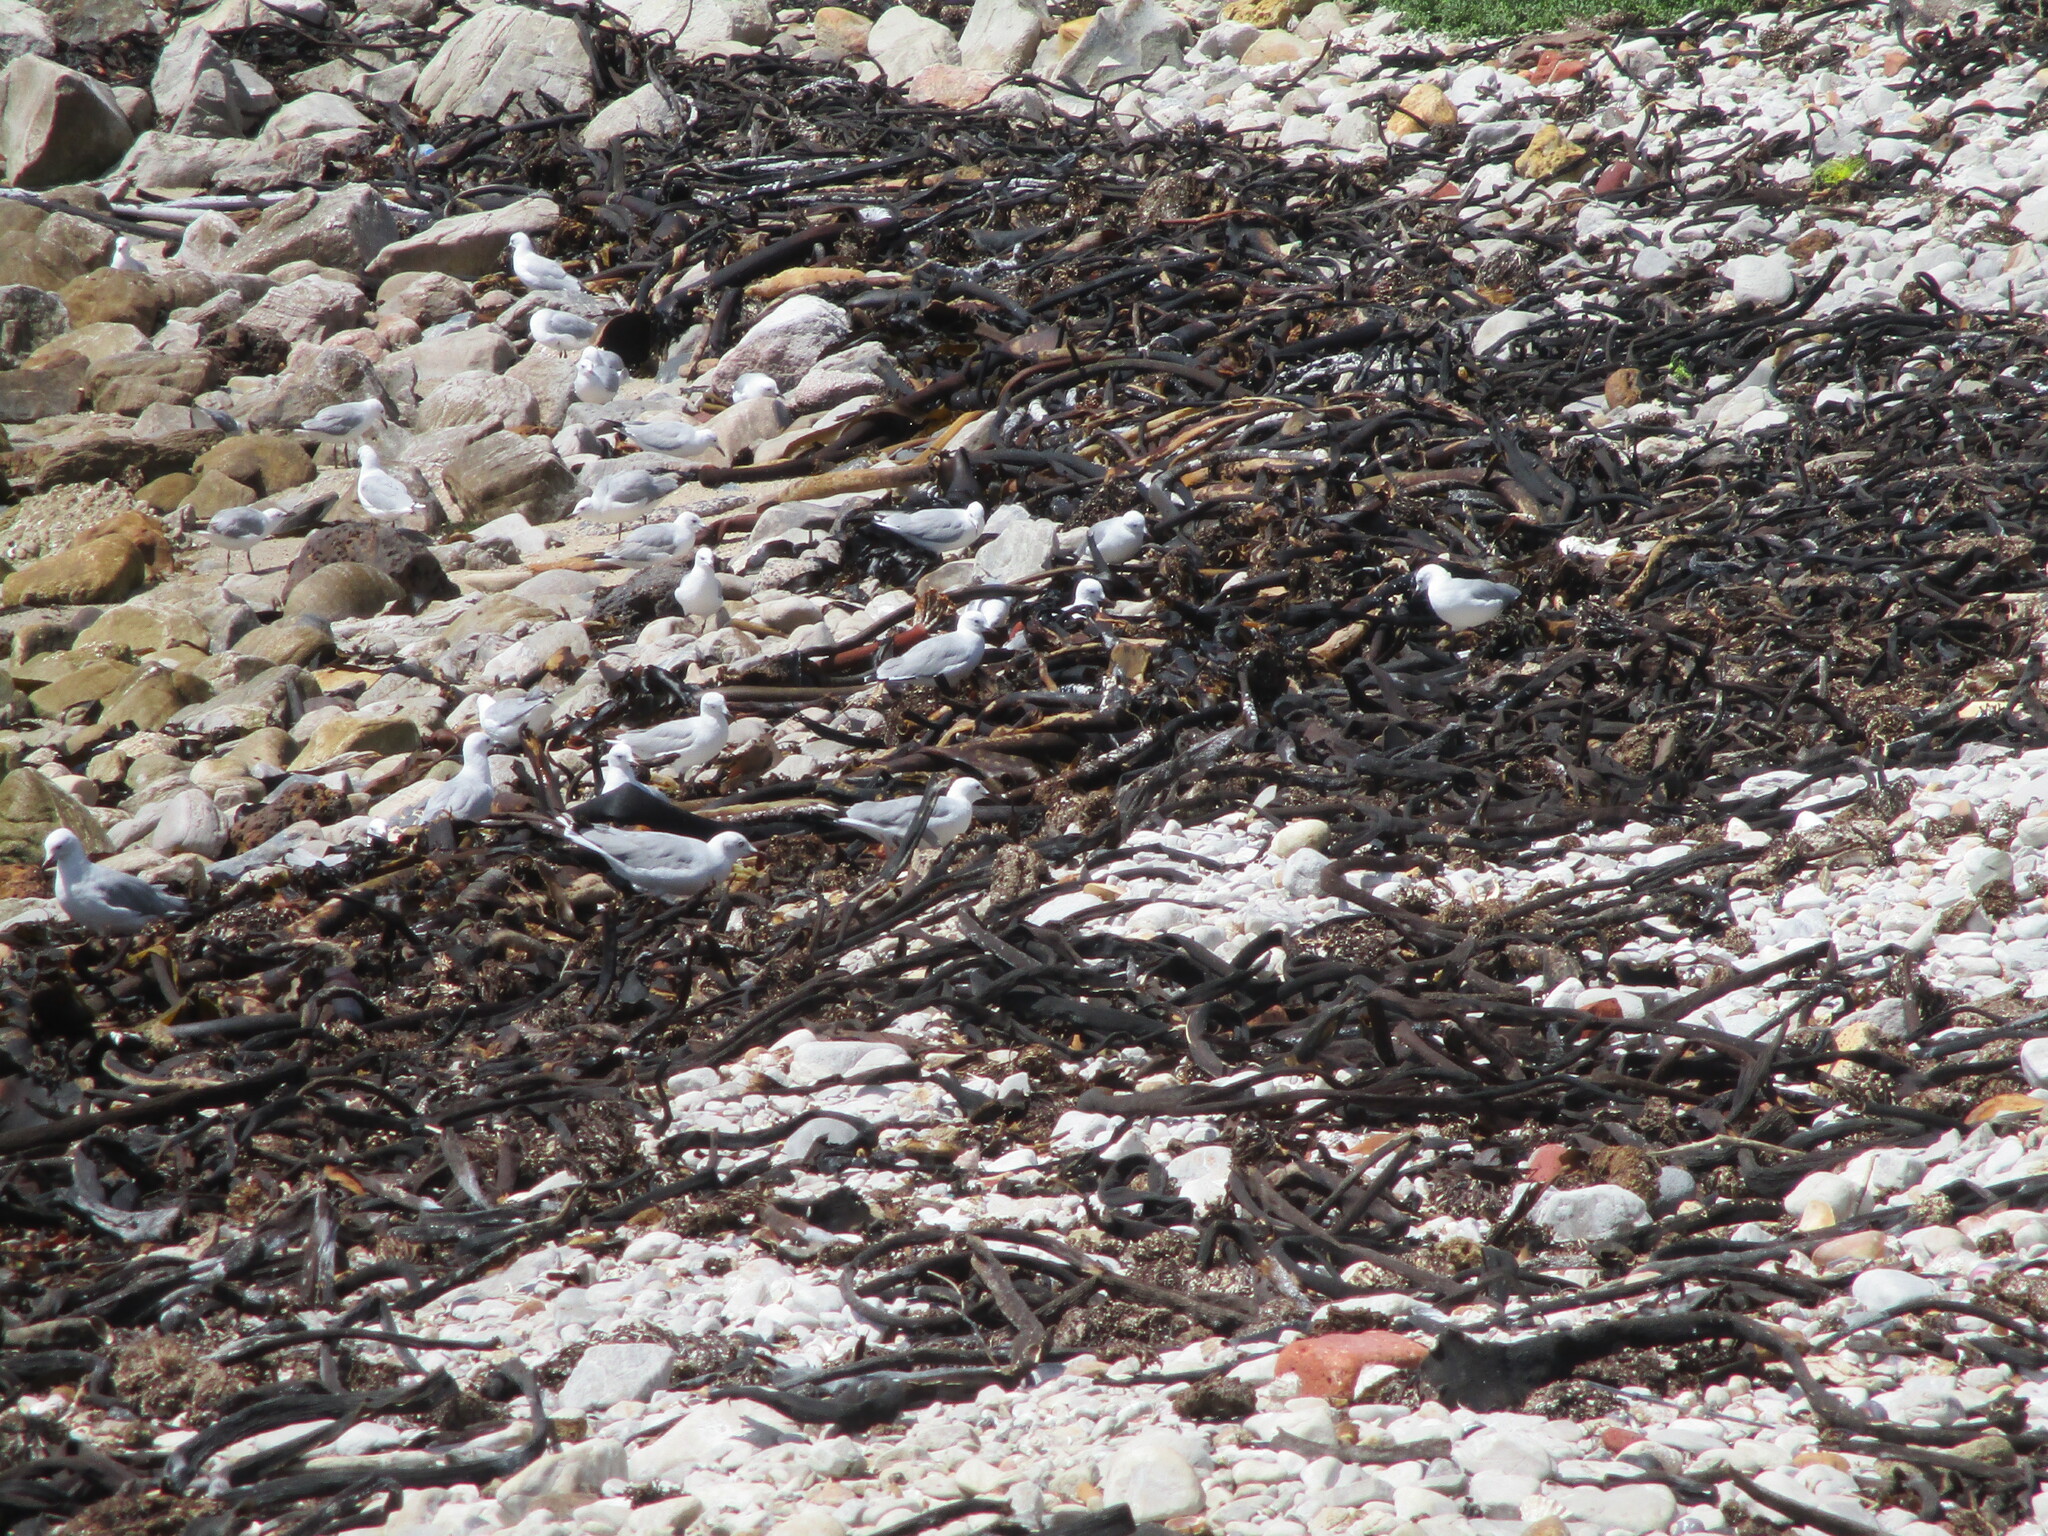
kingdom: Animalia
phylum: Chordata
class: Aves
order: Charadriiformes
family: Laridae
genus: Chroicocephalus
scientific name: Chroicocephalus hartlaubii
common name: Hartlaub's gull
